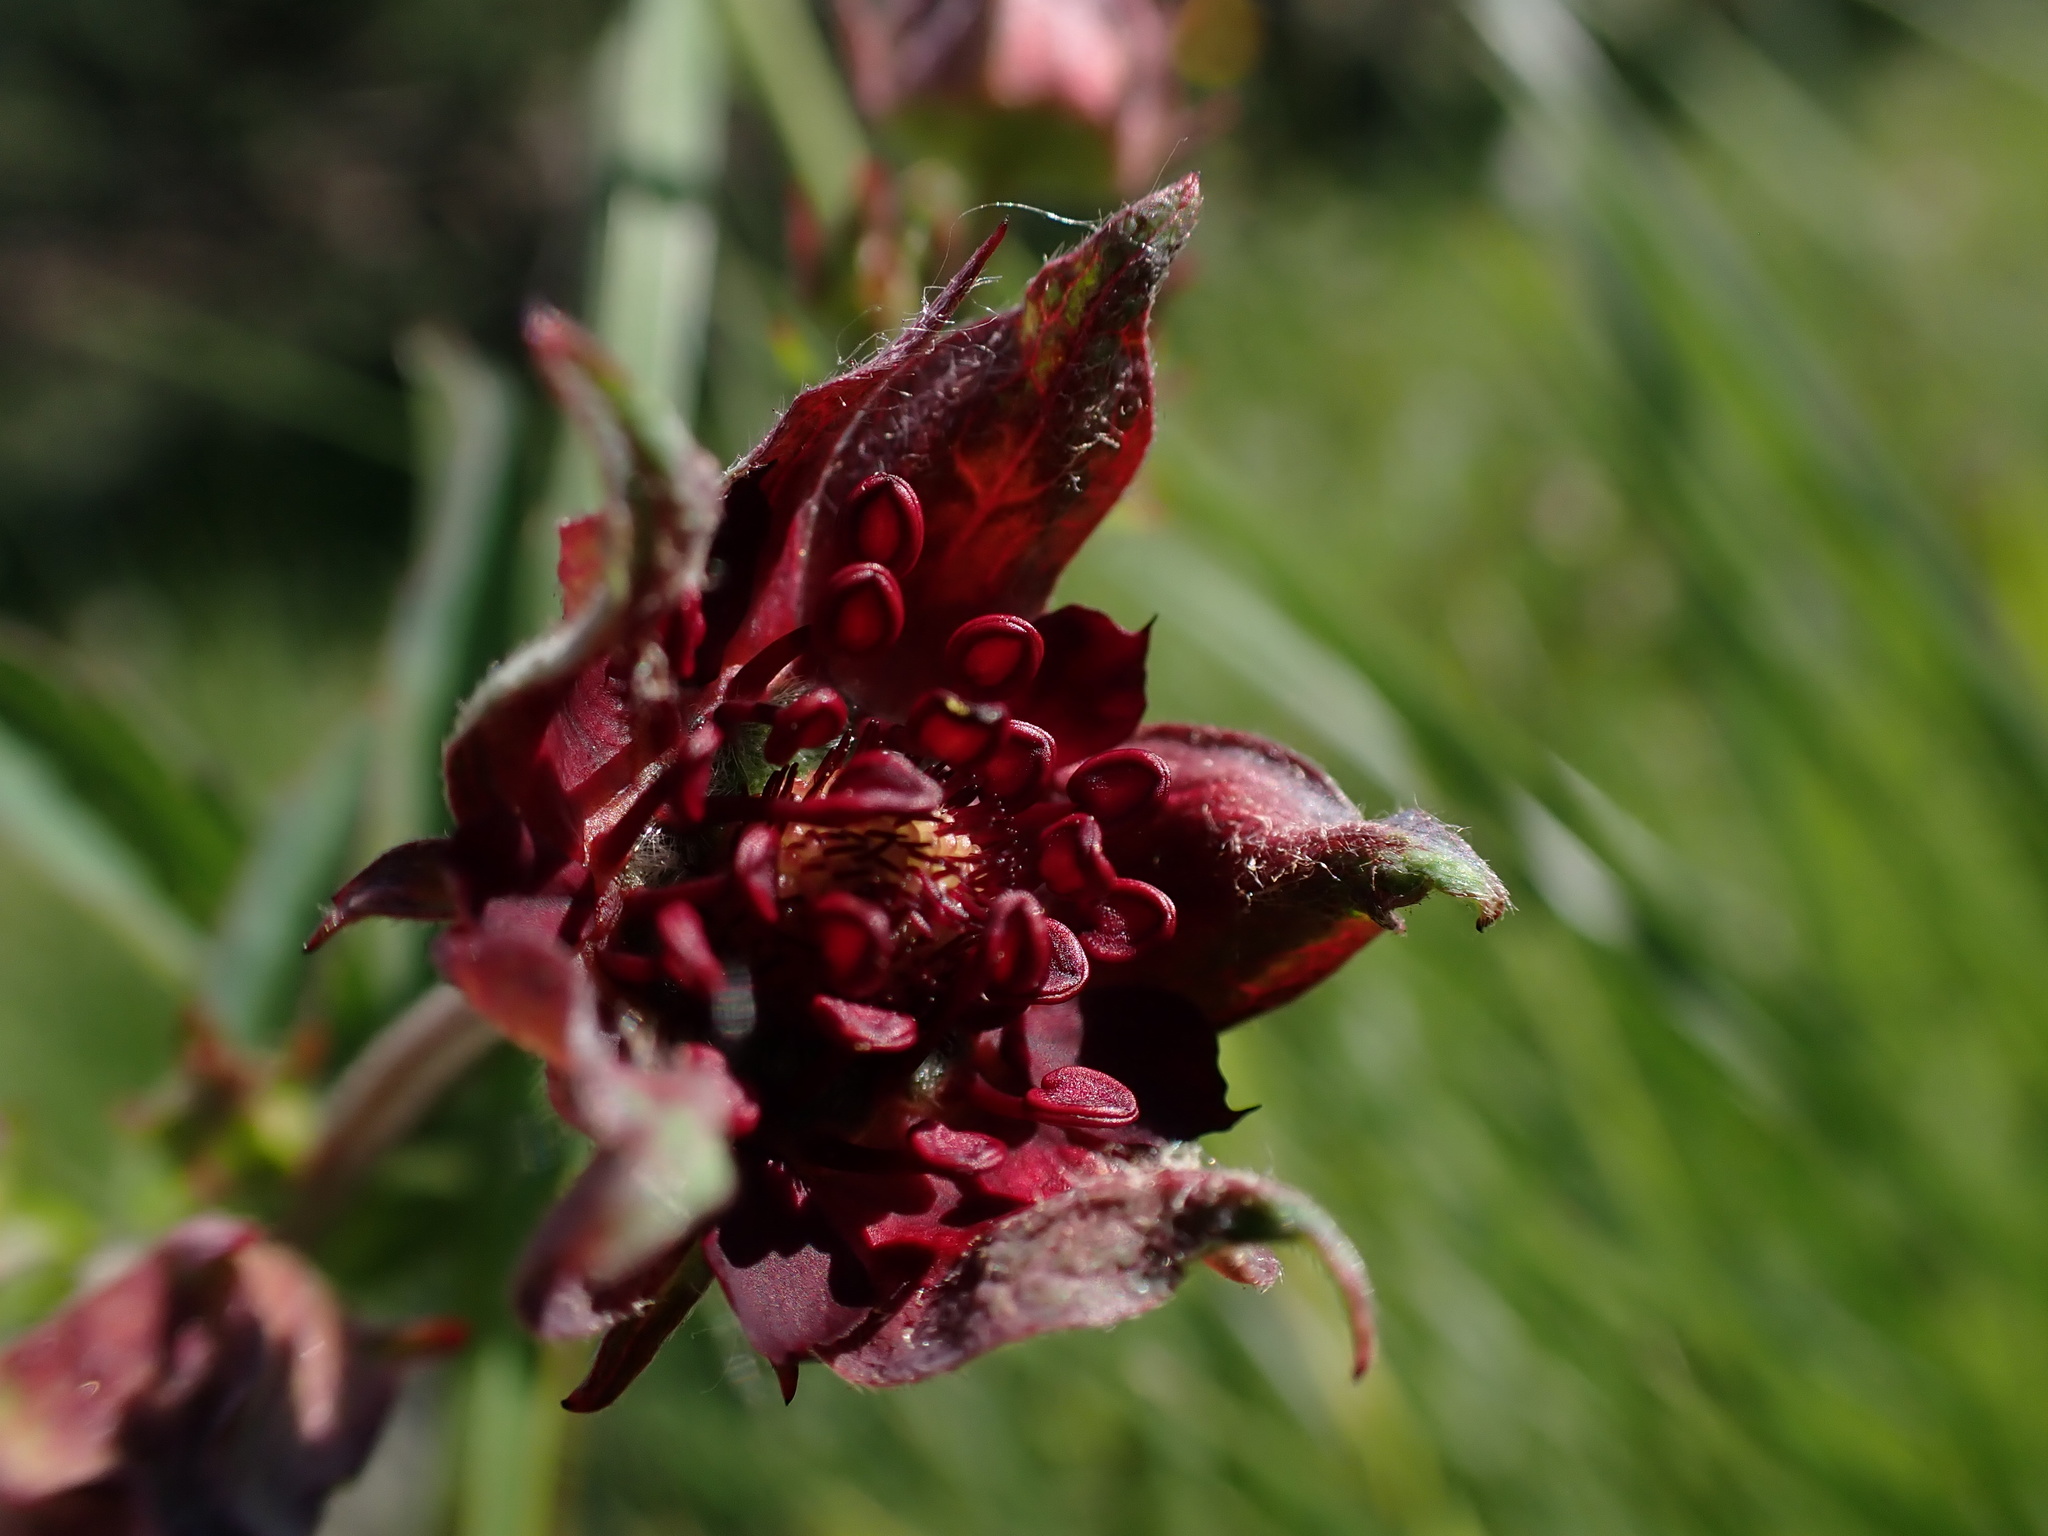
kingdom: Plantae
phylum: Tracheophyta
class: Magnoliopsida
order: Rosales
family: Rosaceae
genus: Comarum
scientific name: Comarum palustre
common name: Marsh cinquefoil
